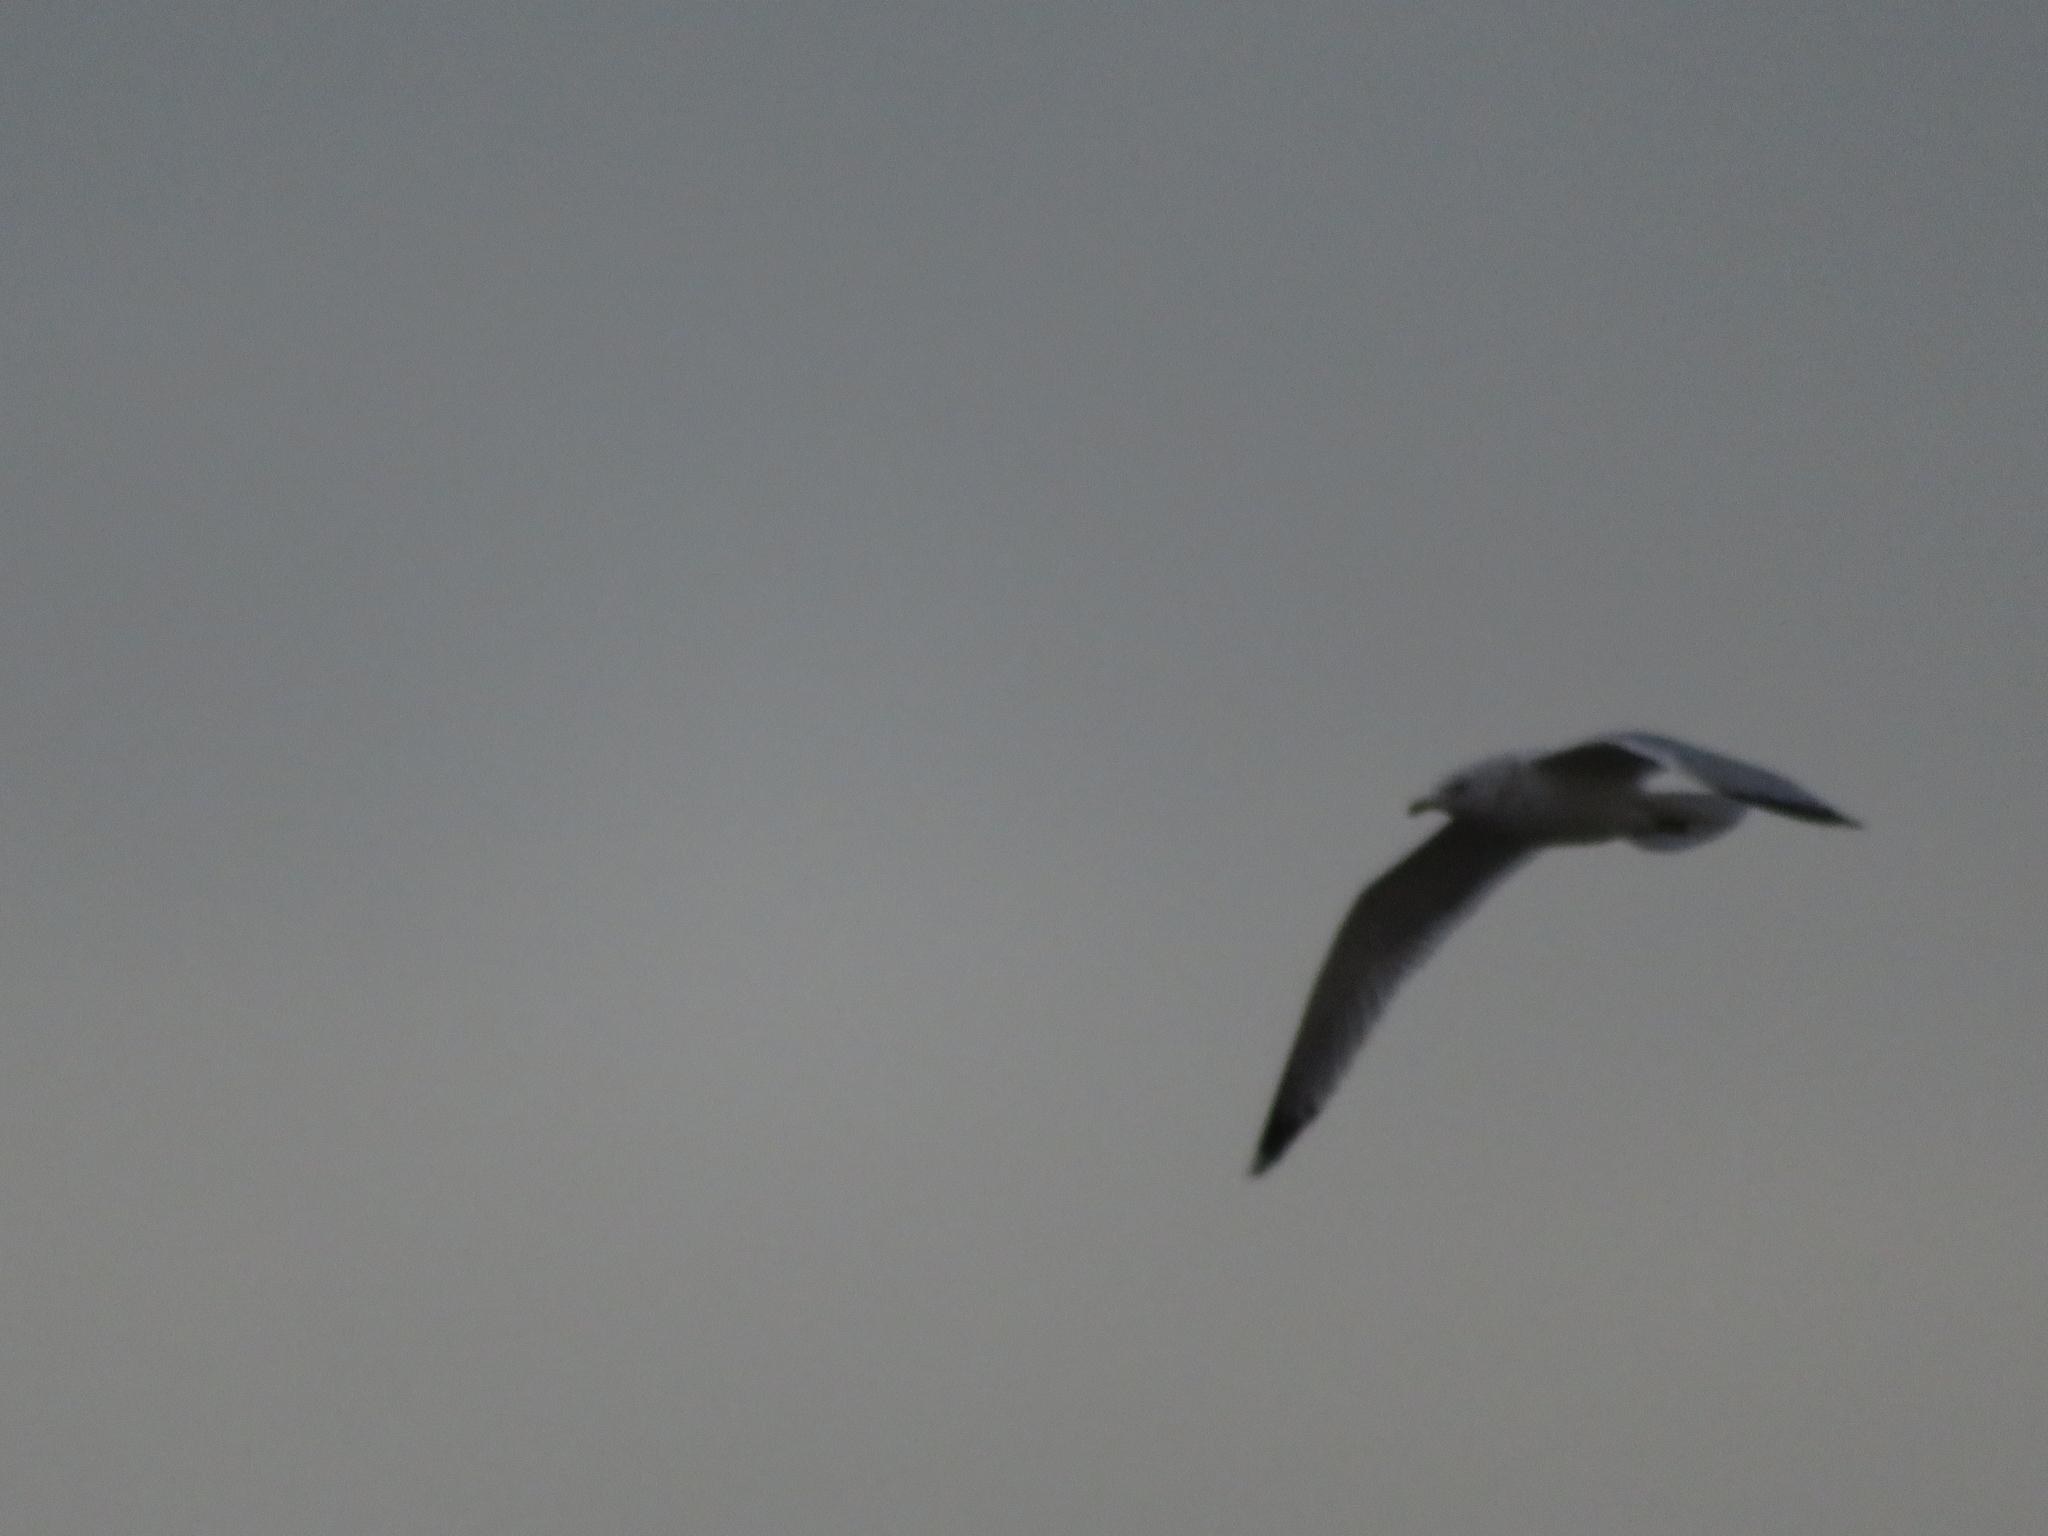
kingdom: Animalia
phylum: Chordata
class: Aves
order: Charadriiformes
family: Laridae
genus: Larus
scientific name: Larus argentatus
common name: Herring gull
